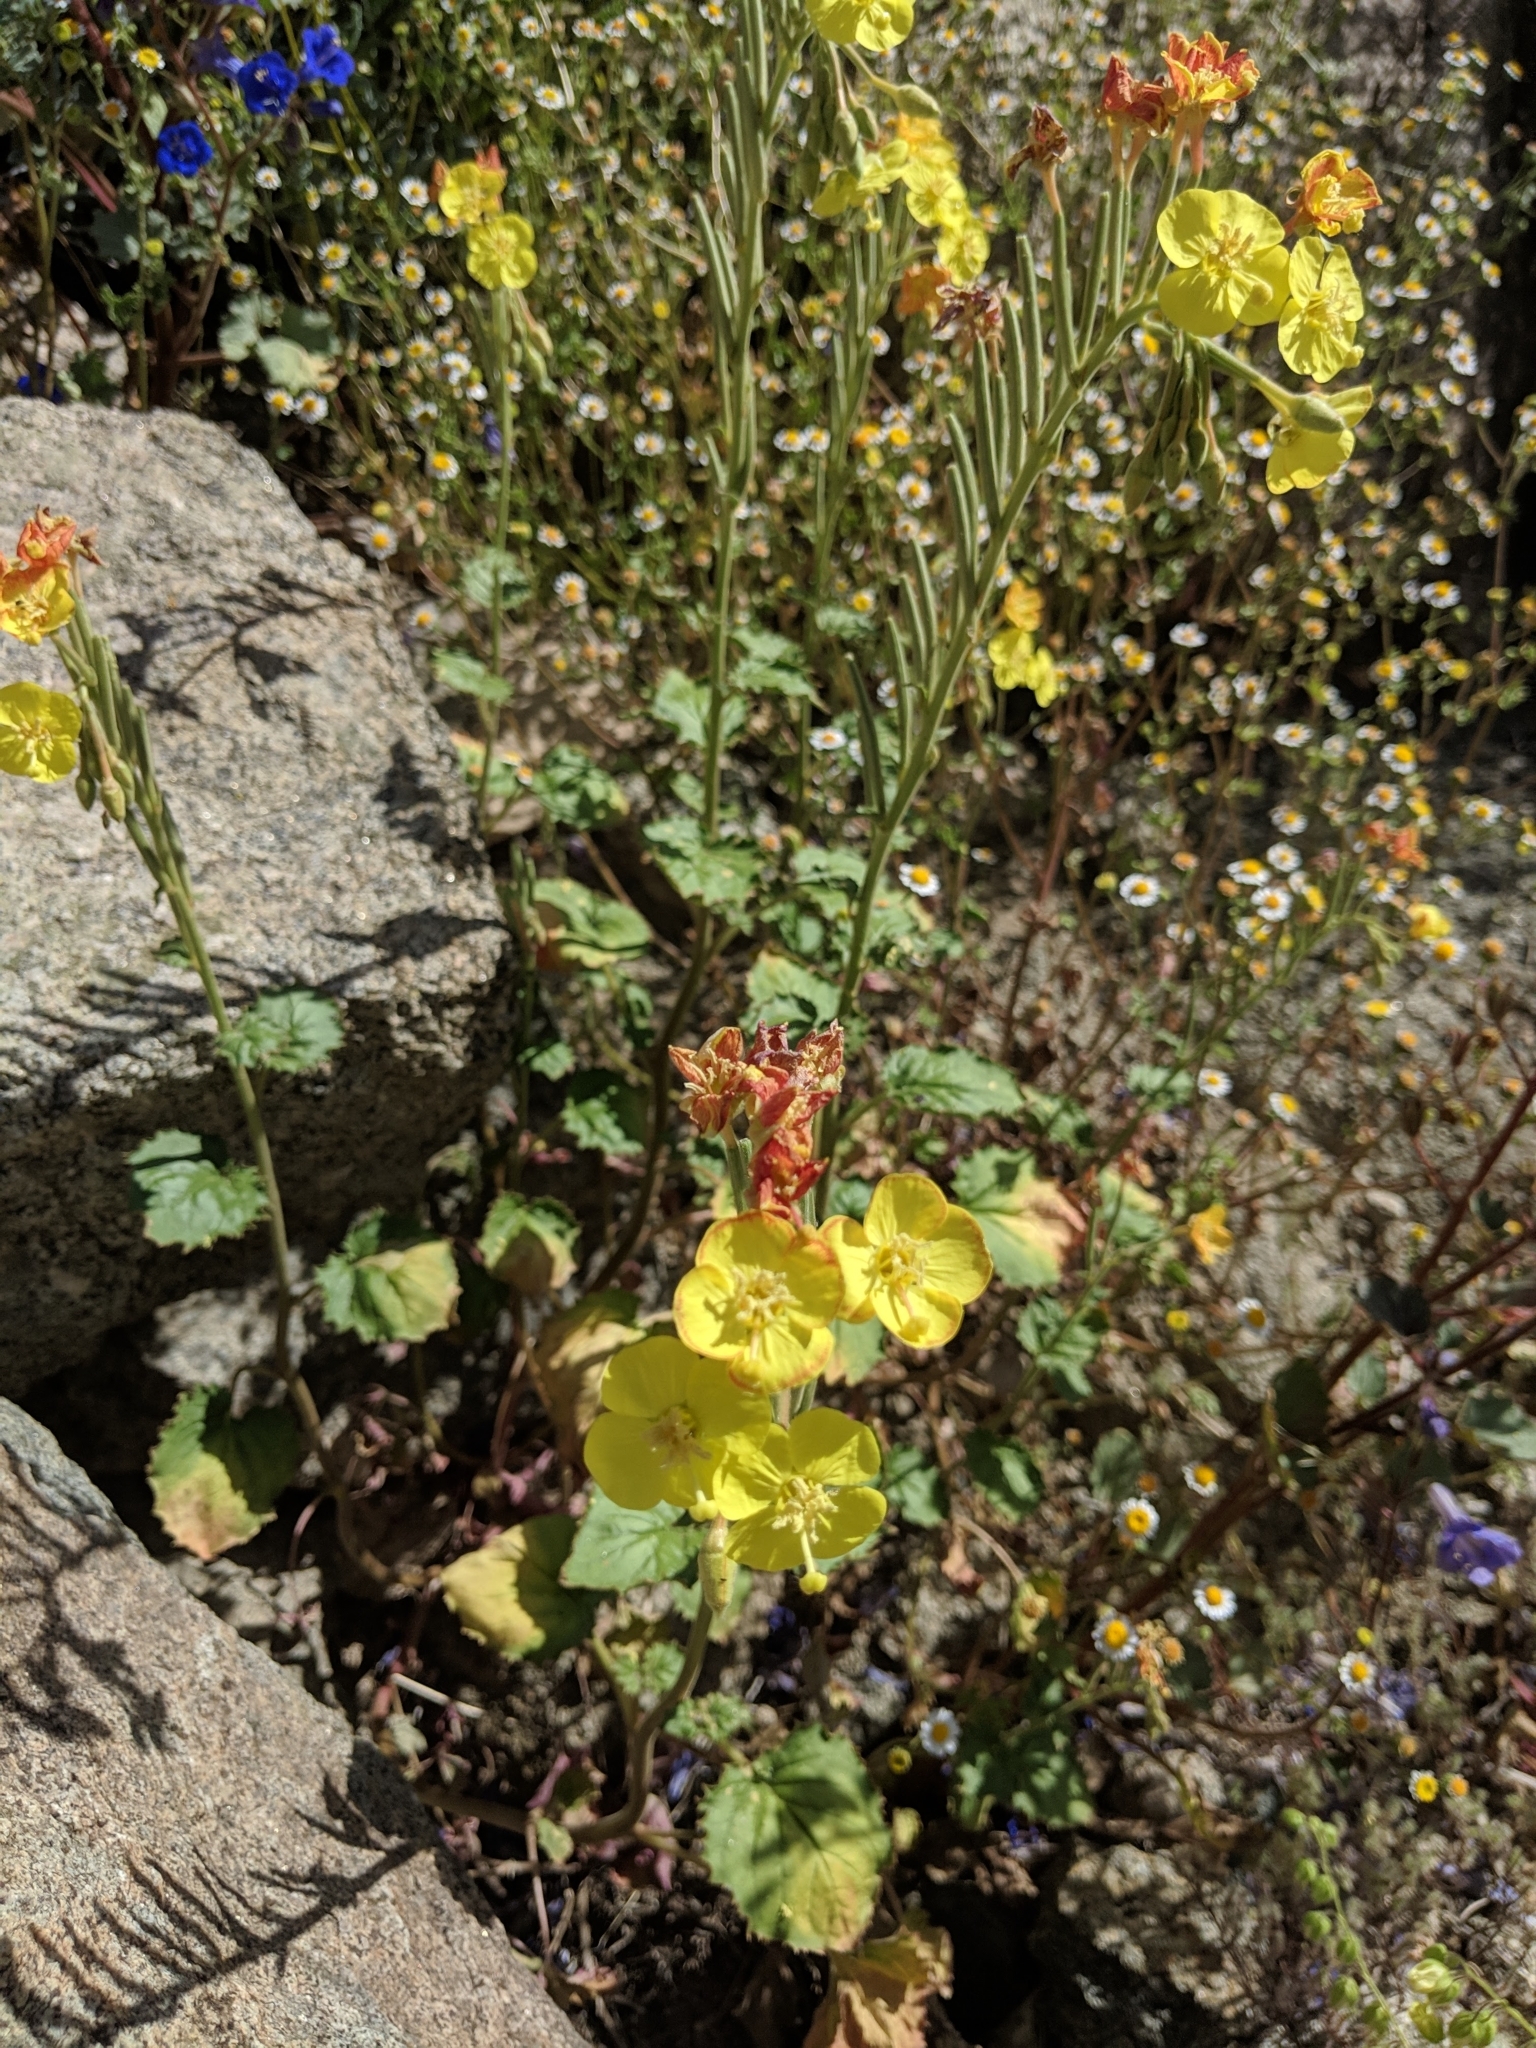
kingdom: Plantae
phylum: Tracheophyta
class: Magnoliopsida
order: Myrtales
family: Onagraceae
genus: Chylismia
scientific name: Chylismia cardiophylla
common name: Heartleaf suncup
